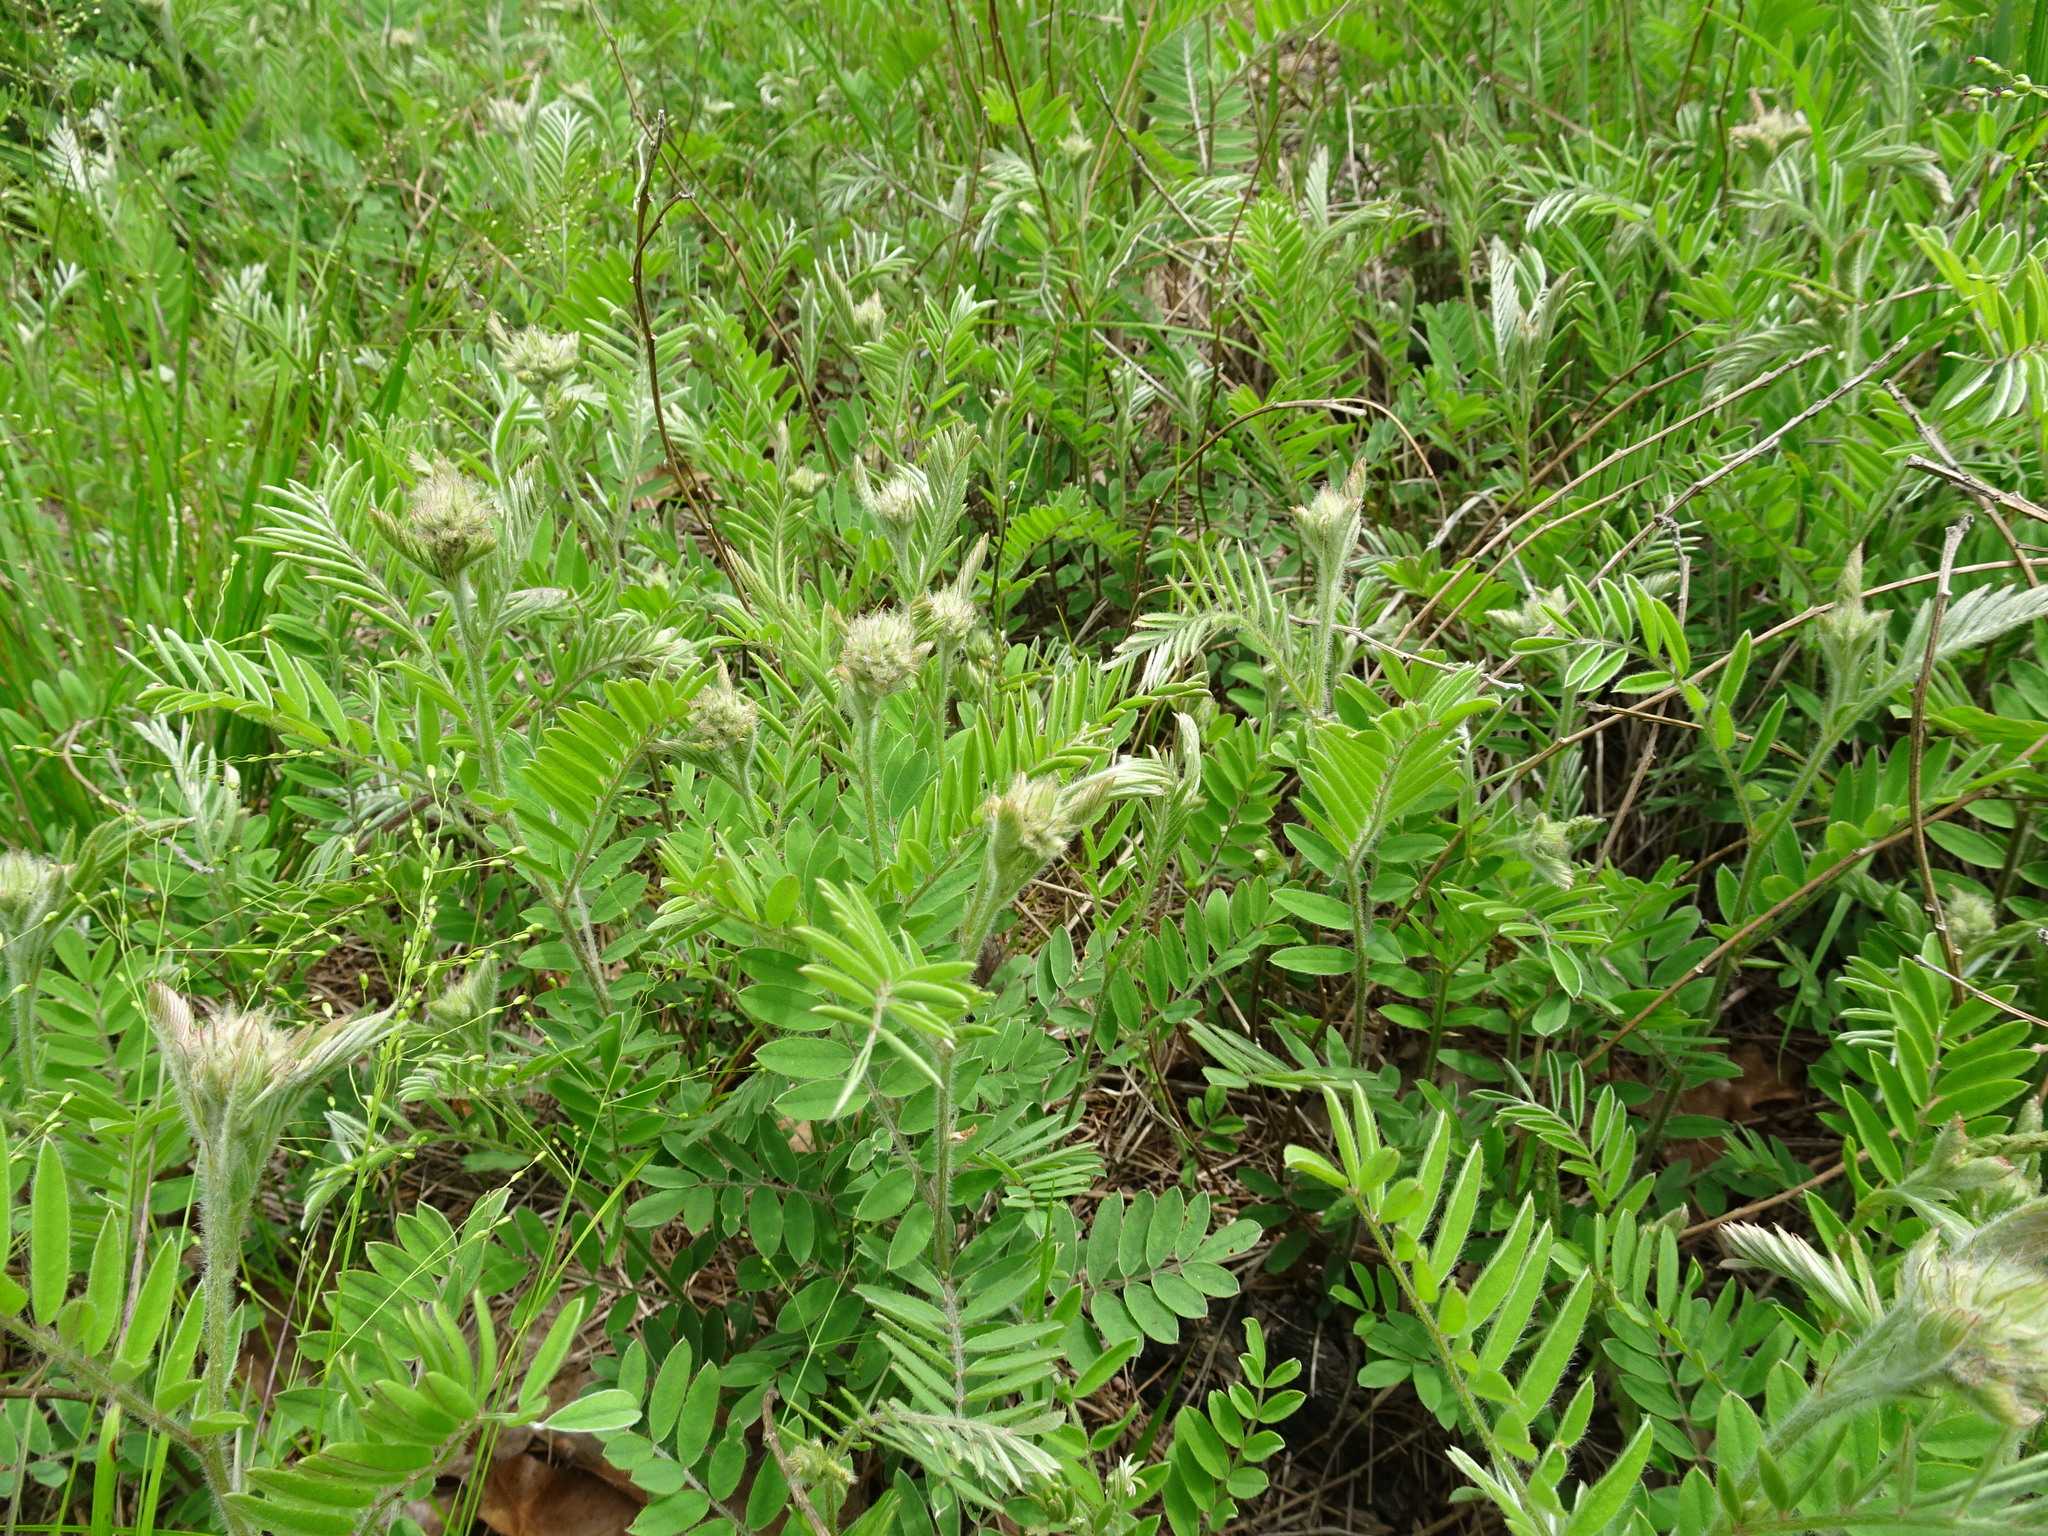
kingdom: Plantae
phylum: Tracheophyta
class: Magnoliopsida
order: Fabales
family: Fabaceae
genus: Tephrosia
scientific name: Tephrosia virginiana
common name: Rabbit-pea
